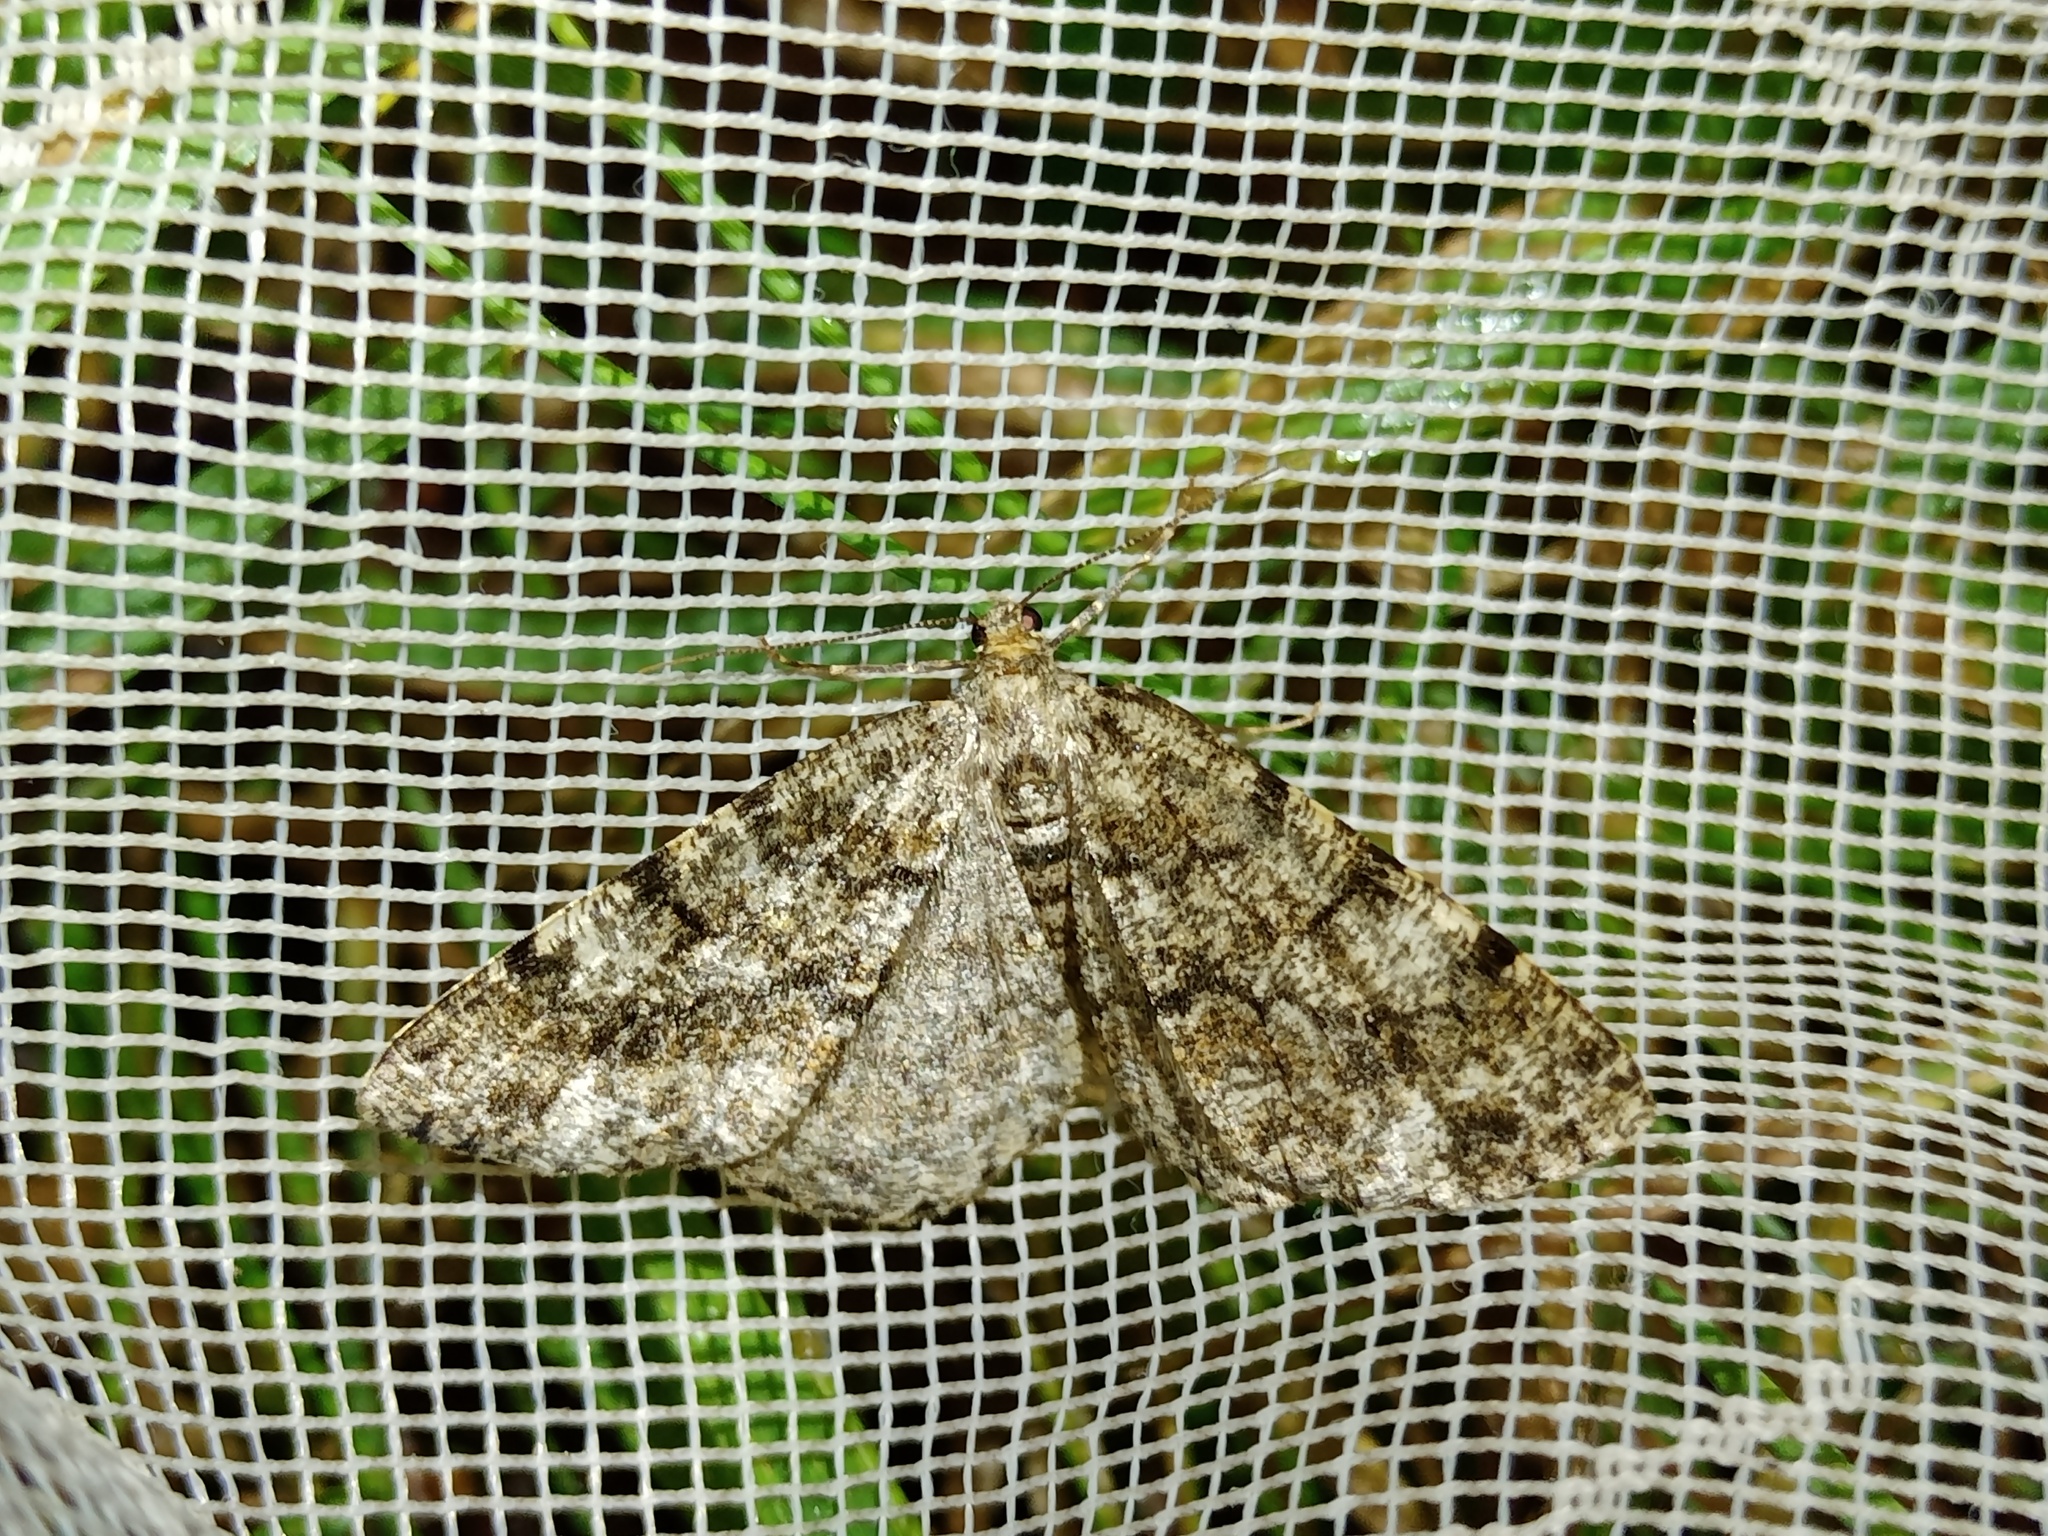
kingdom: Animalia
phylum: Arthropoda
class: Insecta
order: Lepidoptera
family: Geometridae
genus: Deileptenia
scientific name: Deileptenia ribeata
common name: Satin beauty
